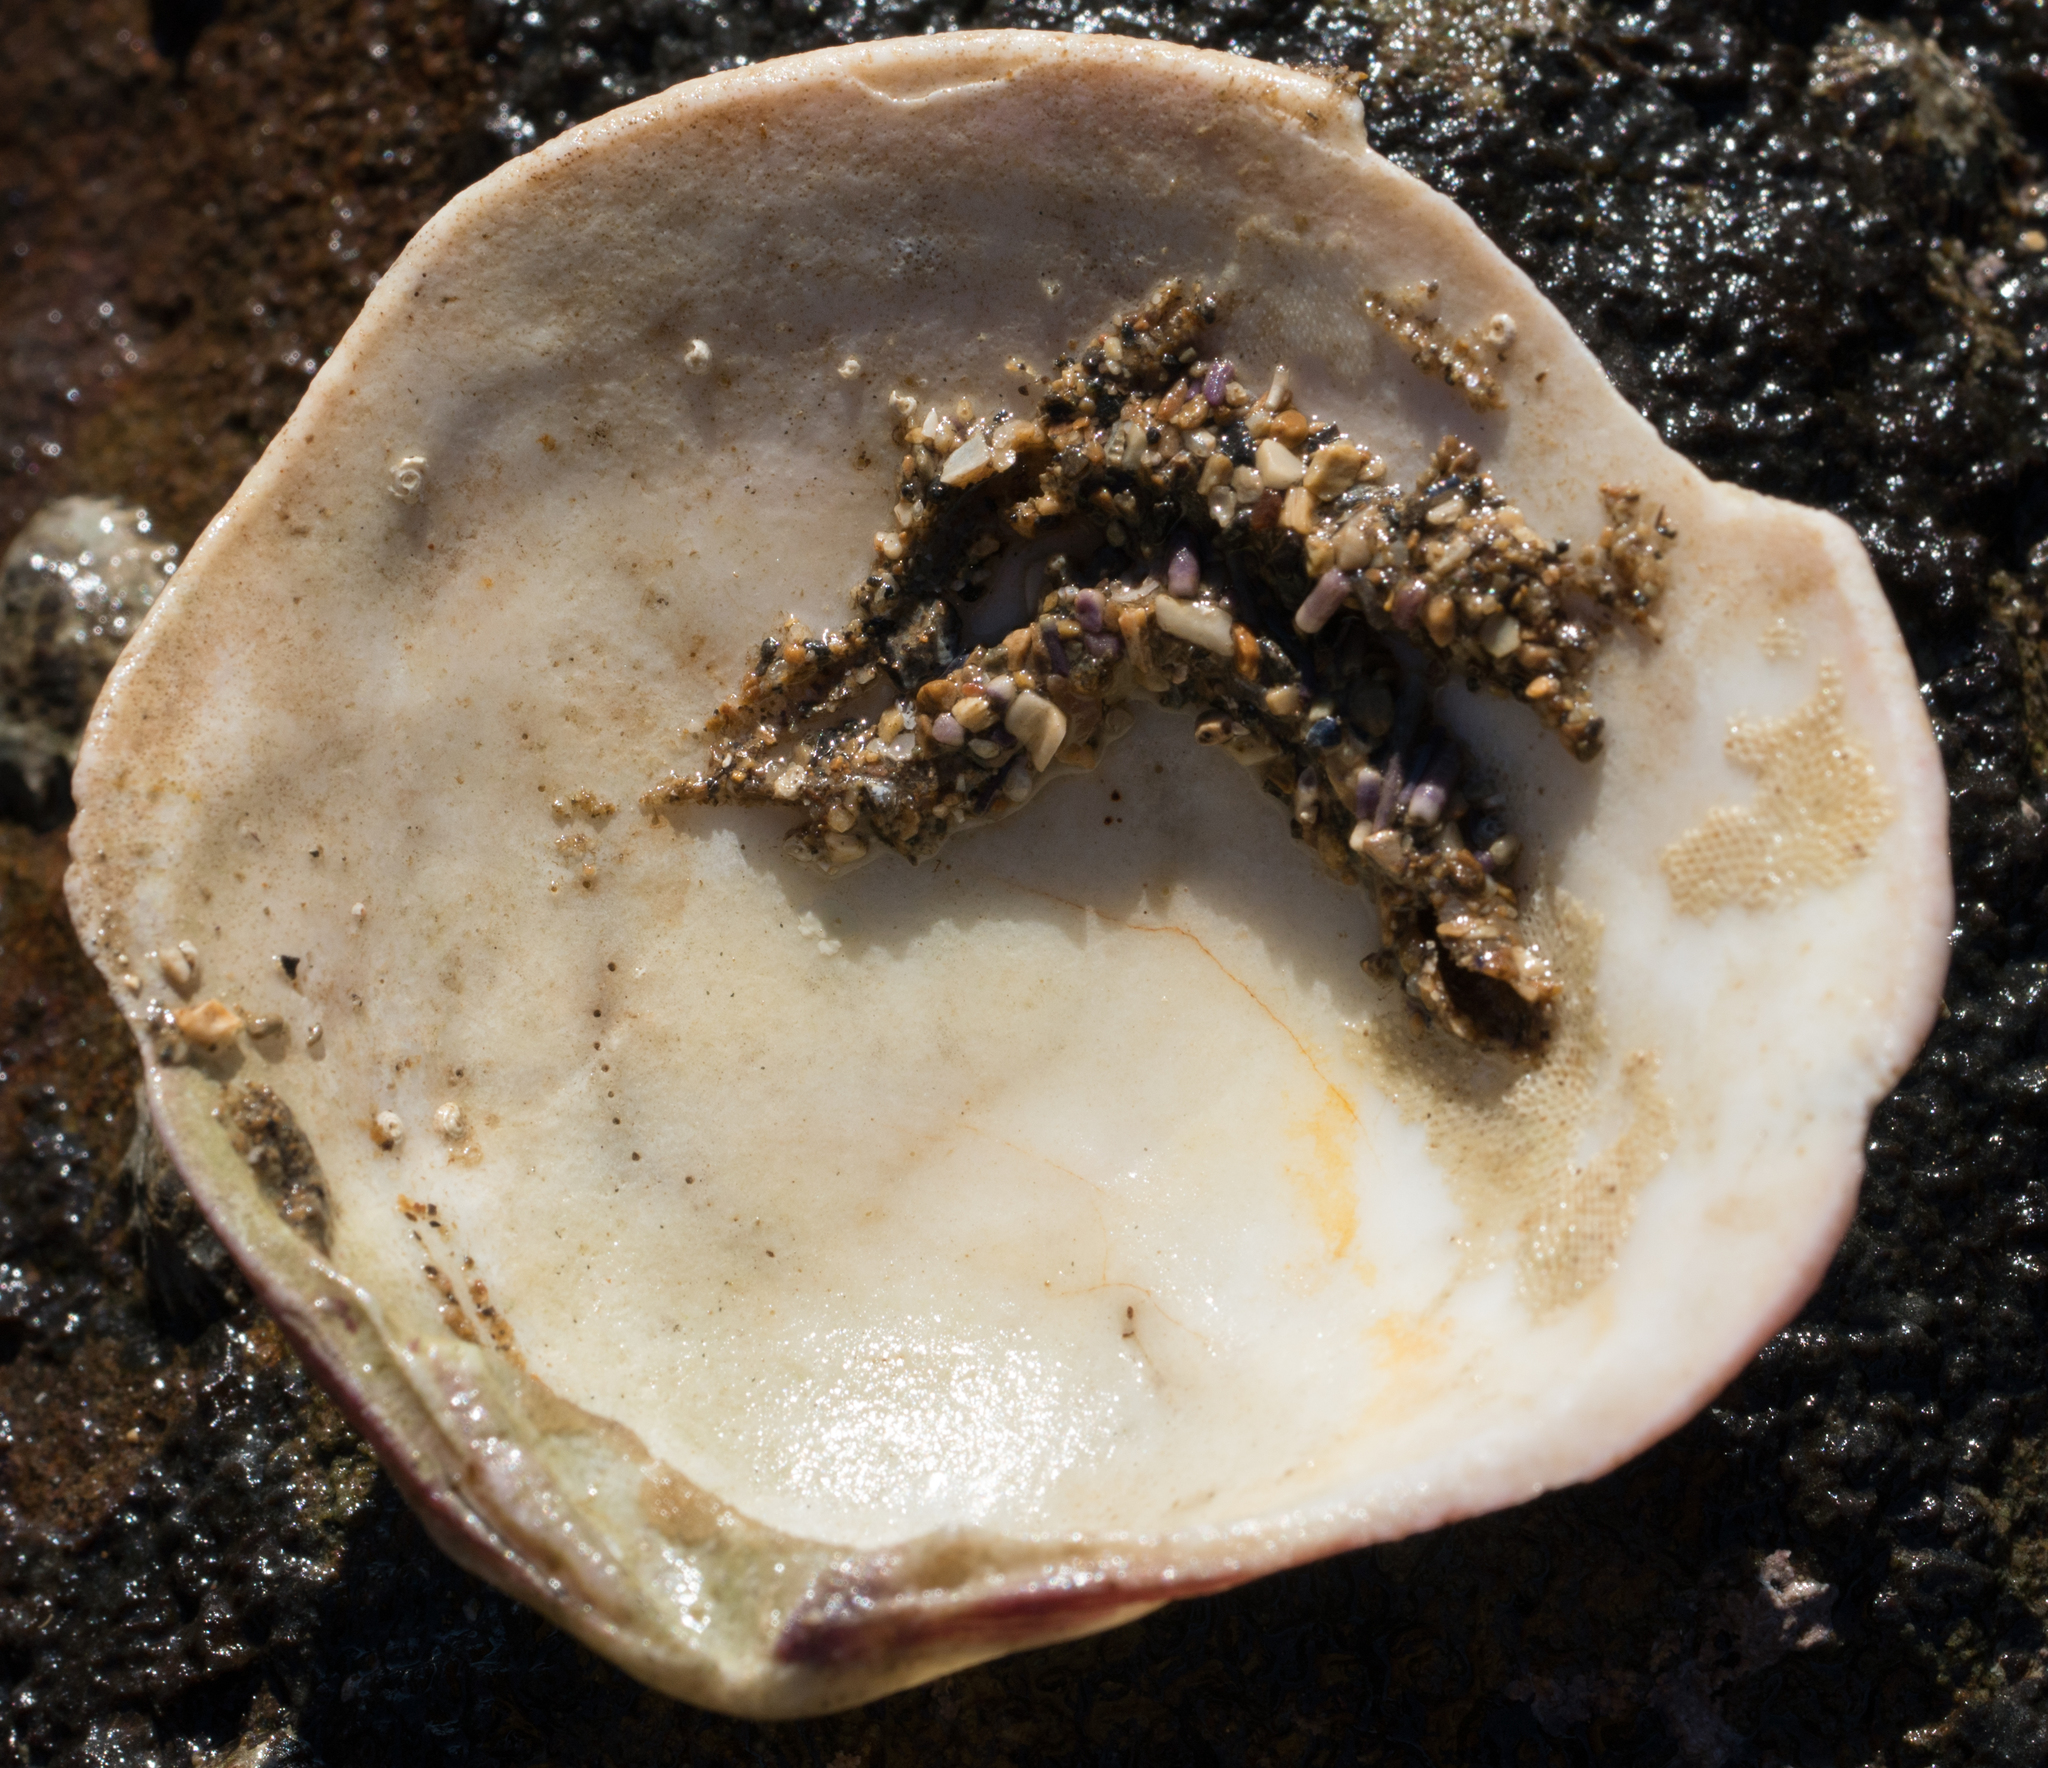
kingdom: Animalia
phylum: Mollusca
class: Bivalvia
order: Cardiida
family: Semelidae
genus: Semele
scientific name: Semele decisa
